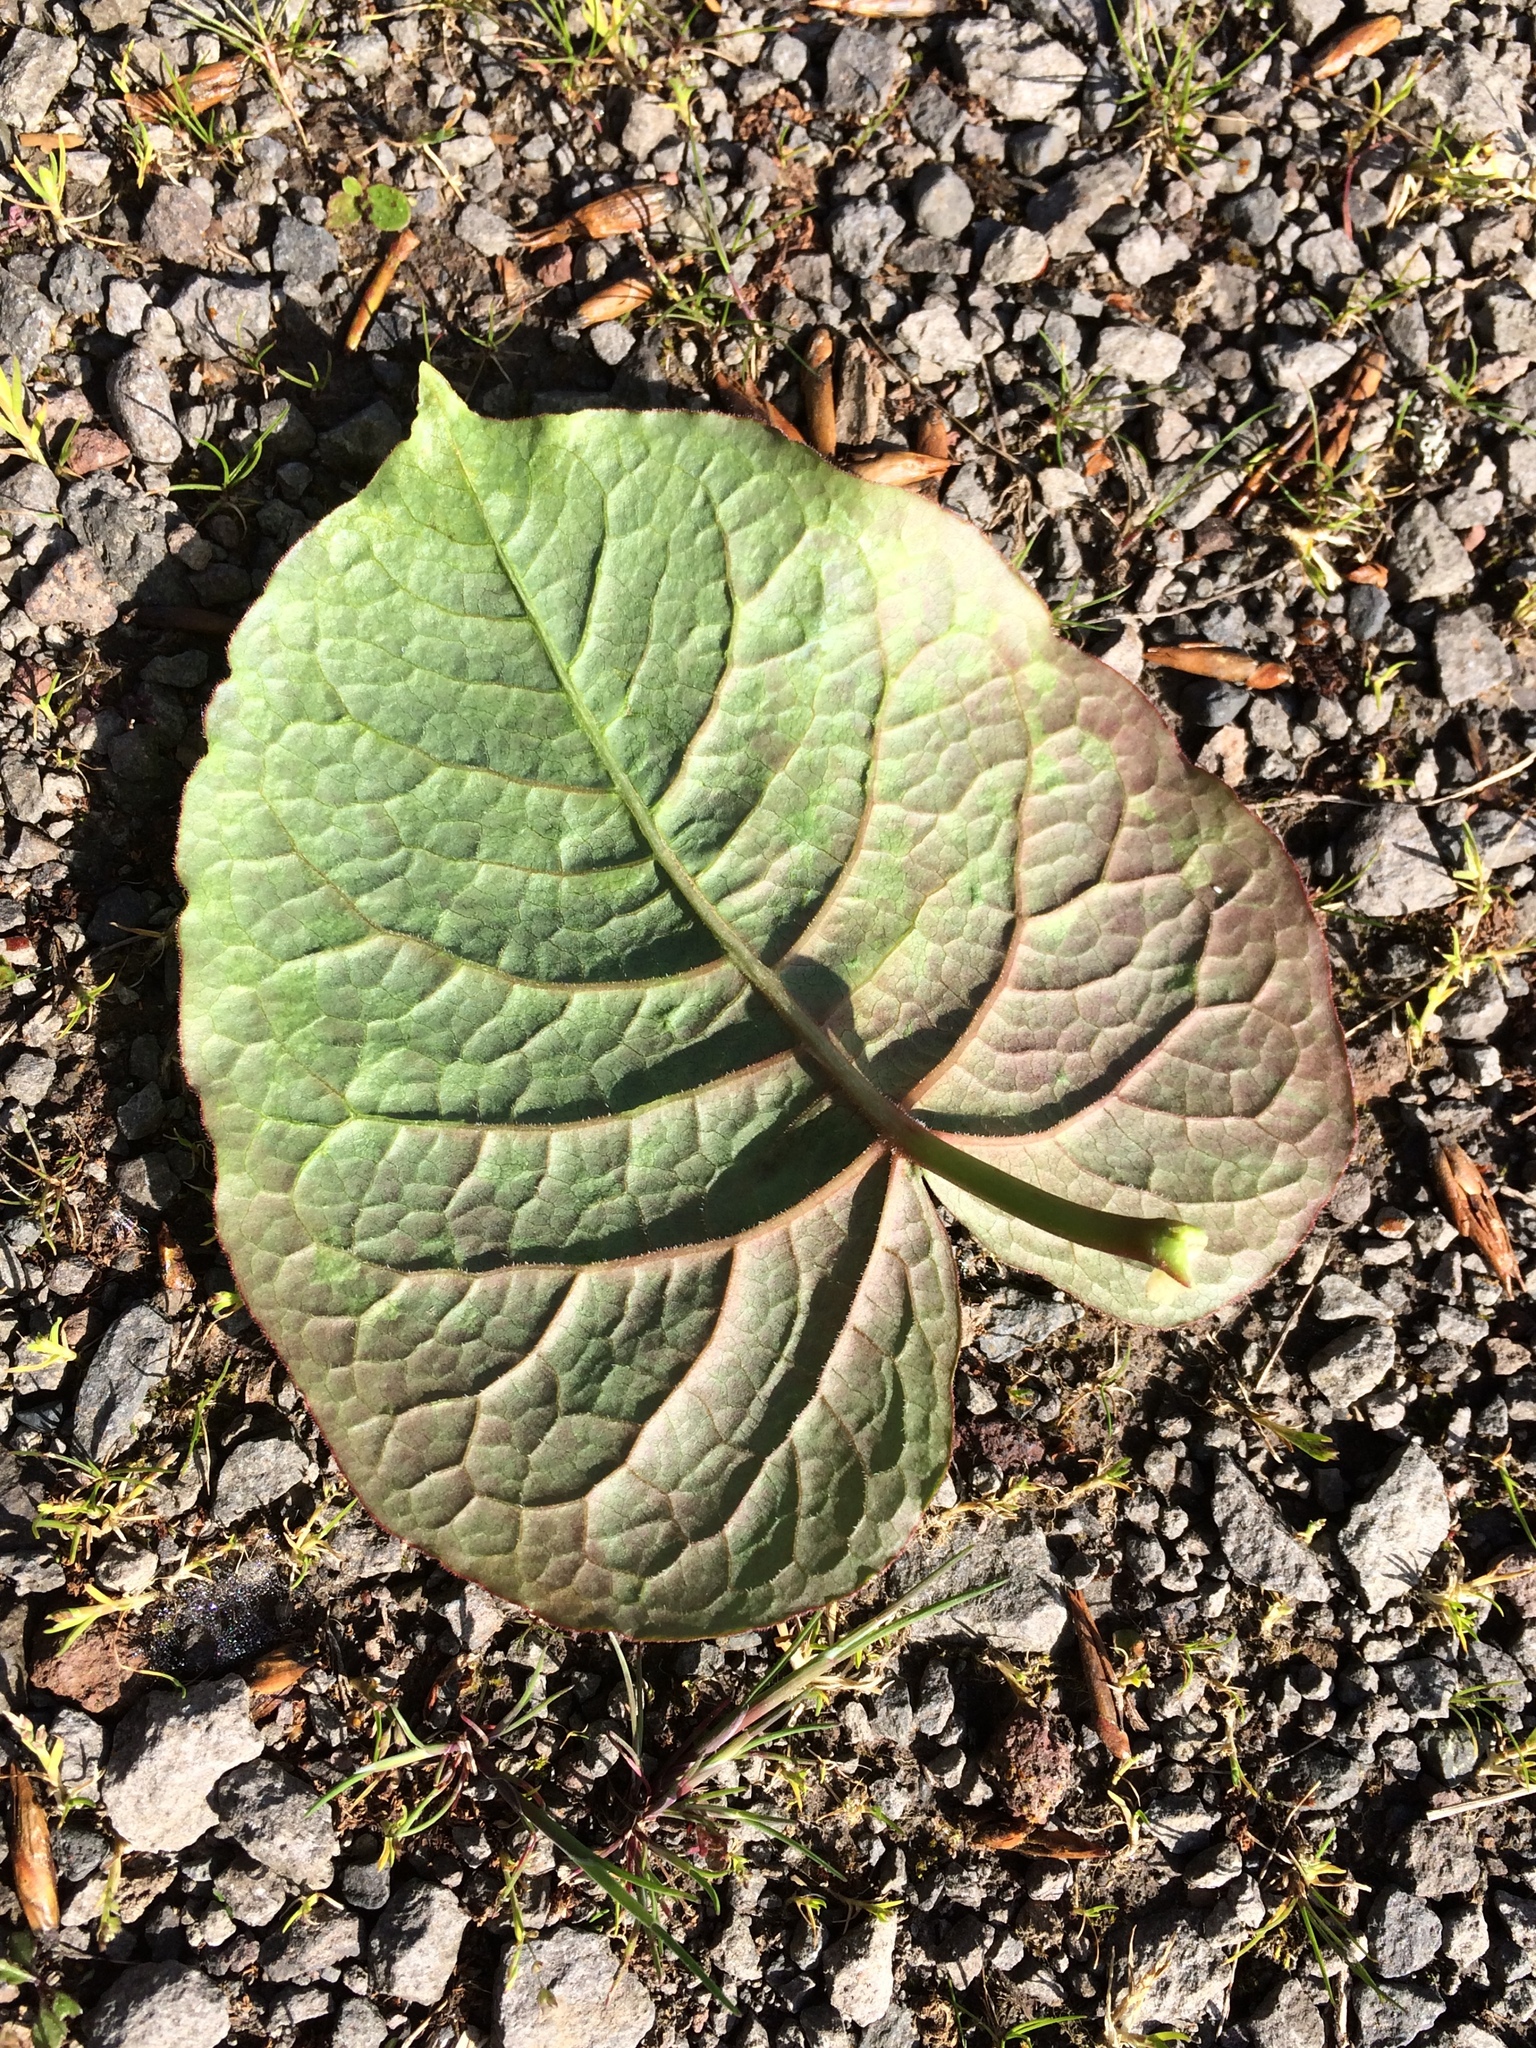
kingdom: Plantae
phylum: Tracheophyta
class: Magnoliopsida
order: Caryophyllales
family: Polygonaceae
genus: Reynoutria
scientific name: Reynoutria japonica
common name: Japanese knotweed
